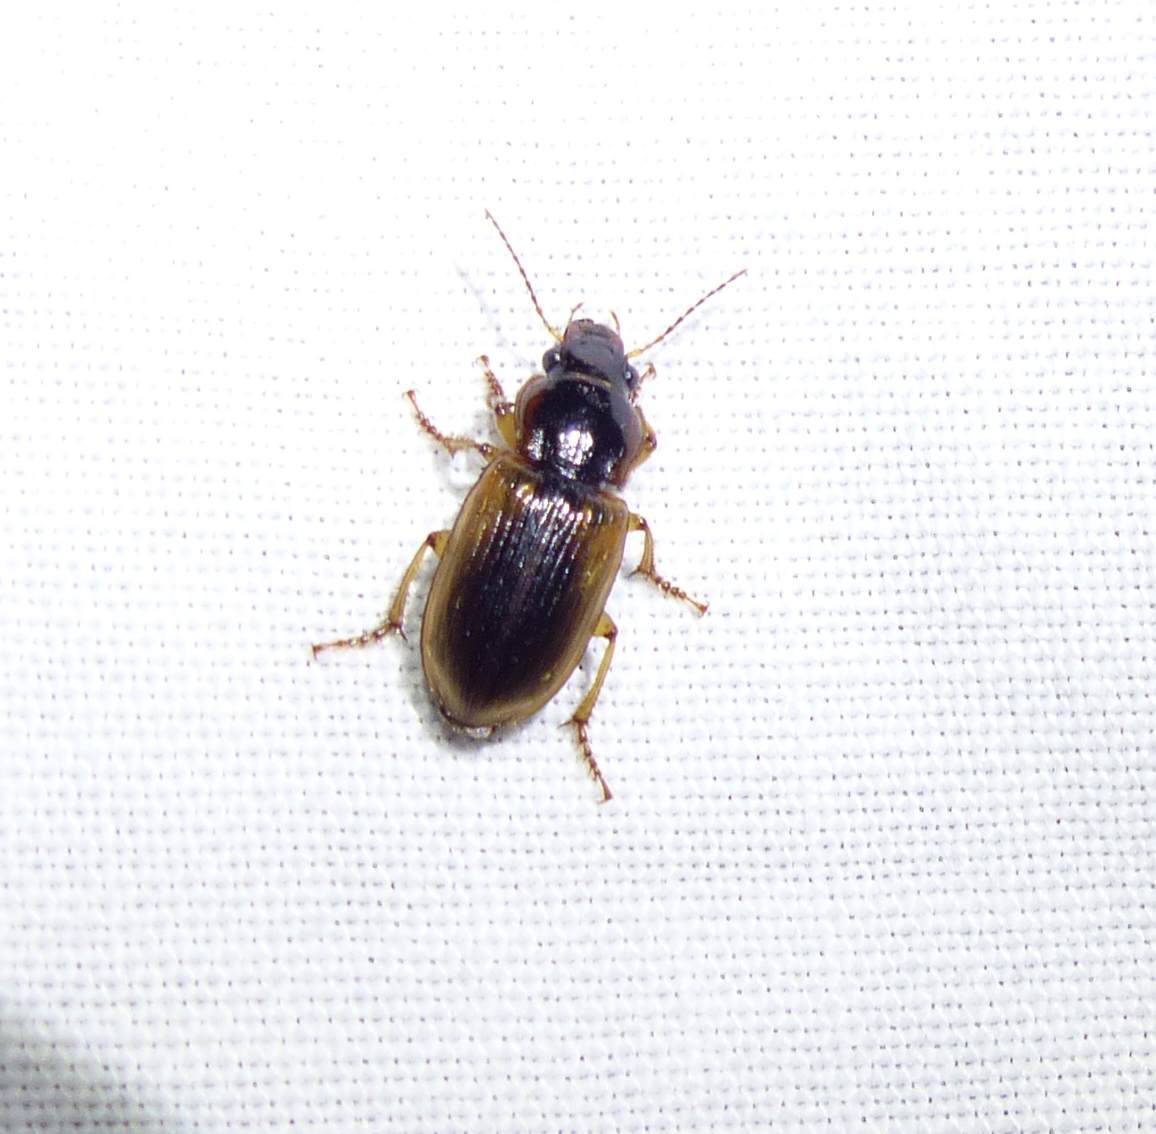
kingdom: Animalia
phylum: Arthropoda
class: Insecta
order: Coleoptera
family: Carabidae
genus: Anisodactylus
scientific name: Anisodactylus discoideus
